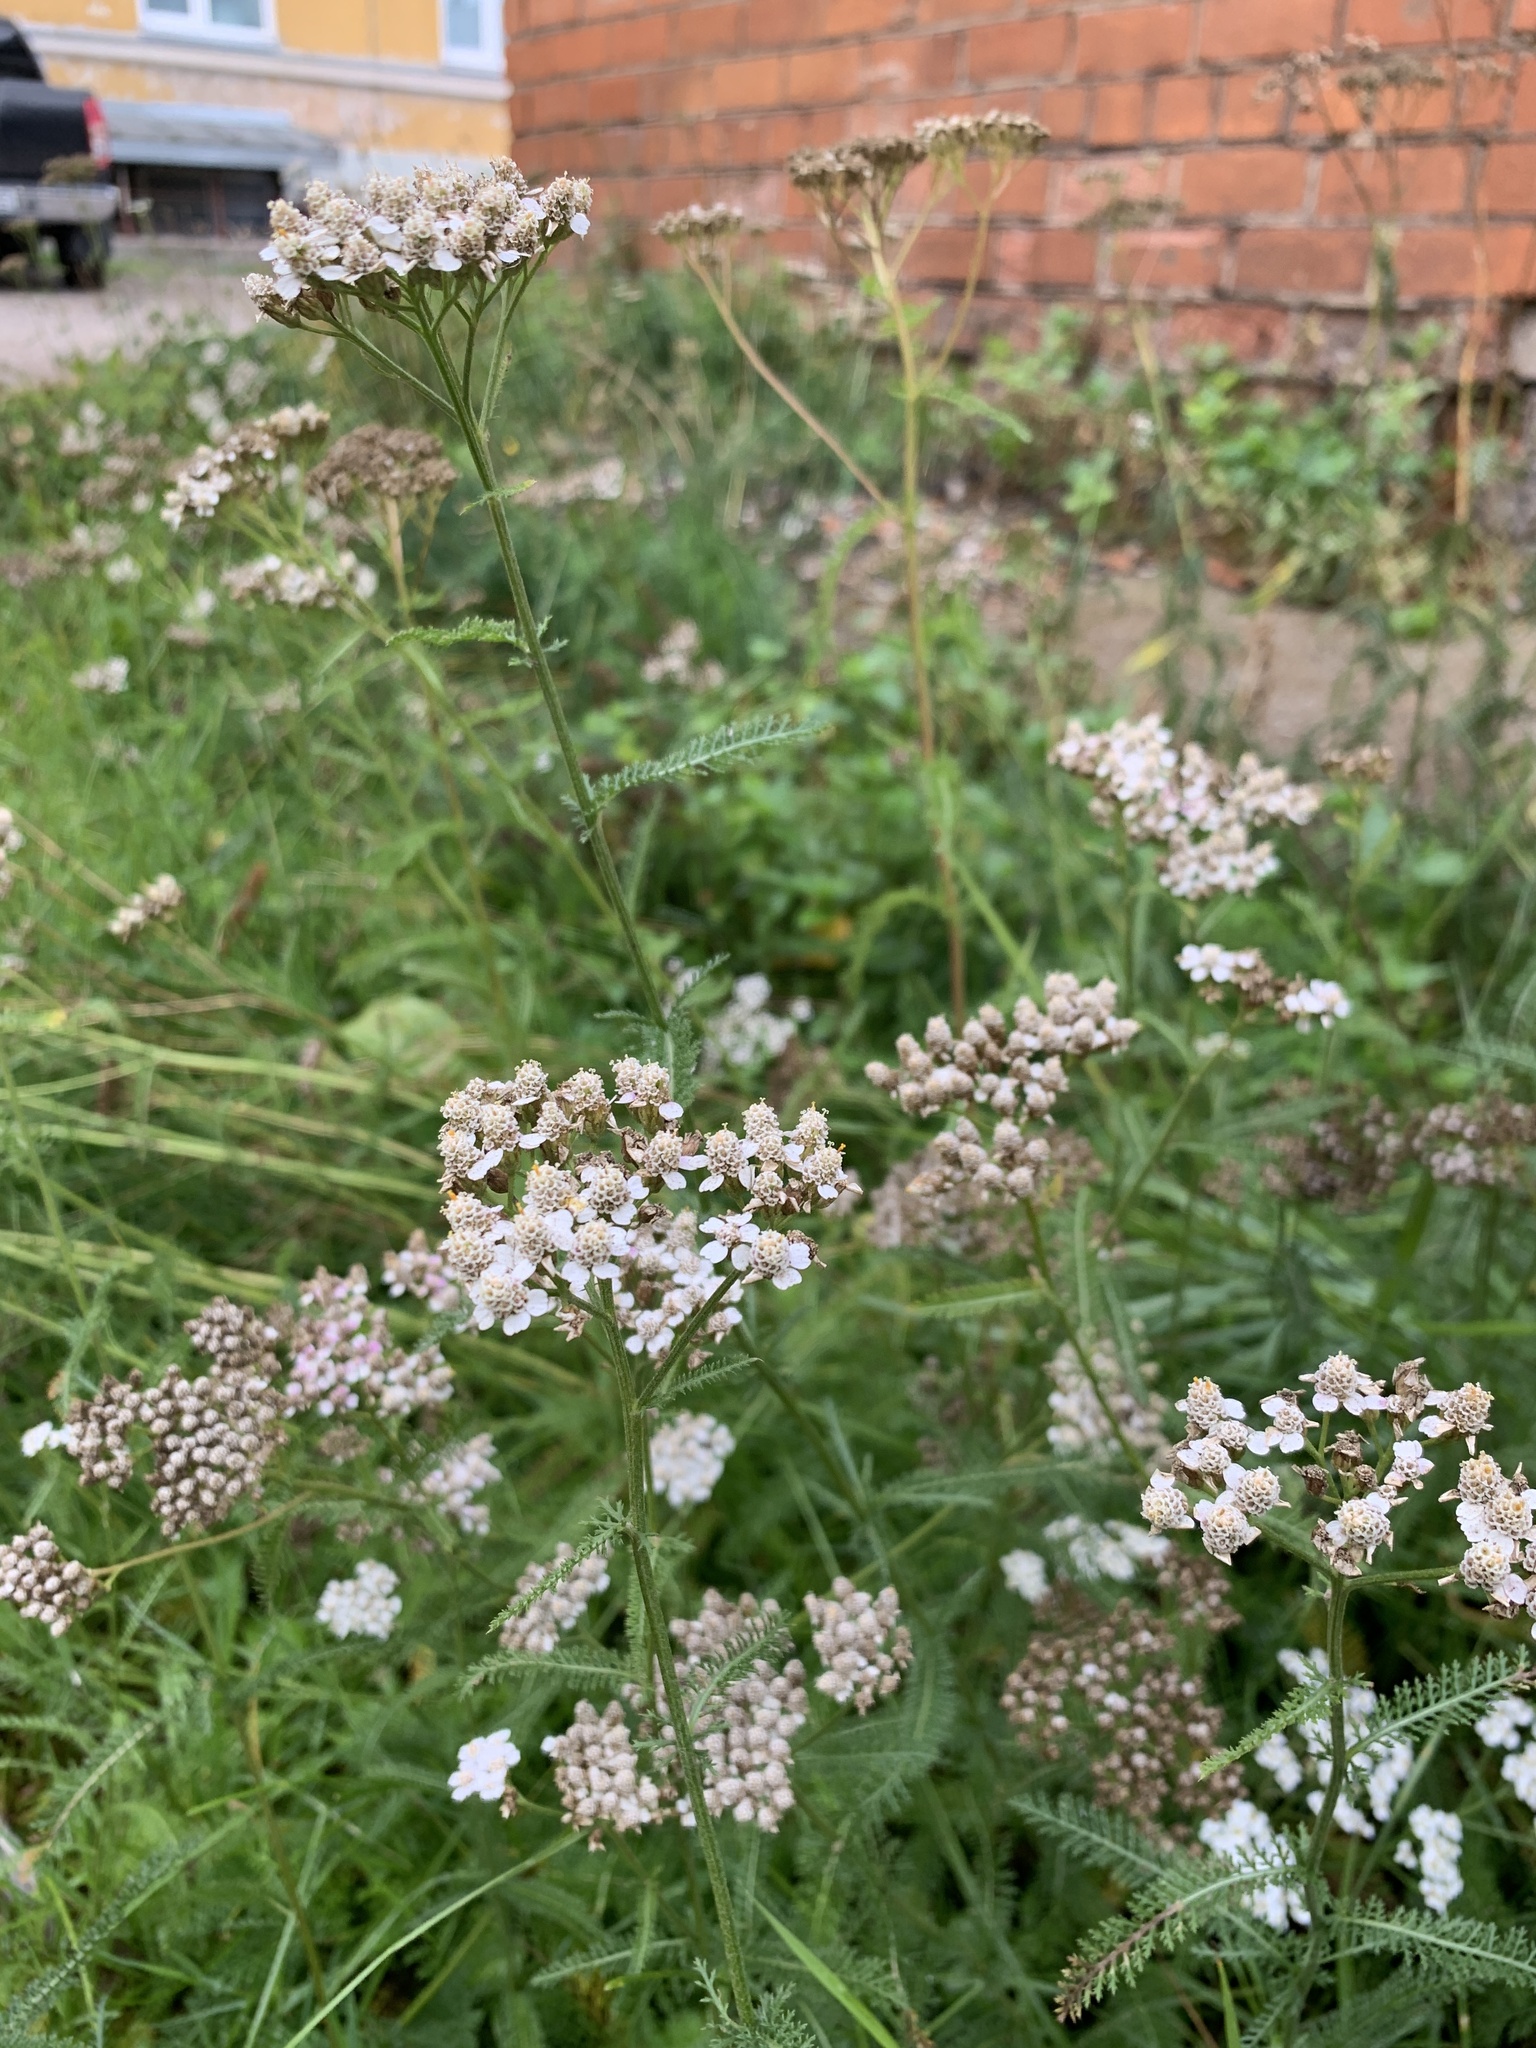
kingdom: Plantae
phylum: Tracheophyta
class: Magnoliopsida
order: Asterales
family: Asteraceae
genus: Achillea
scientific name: Achillea millefolium
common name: Yarrow
